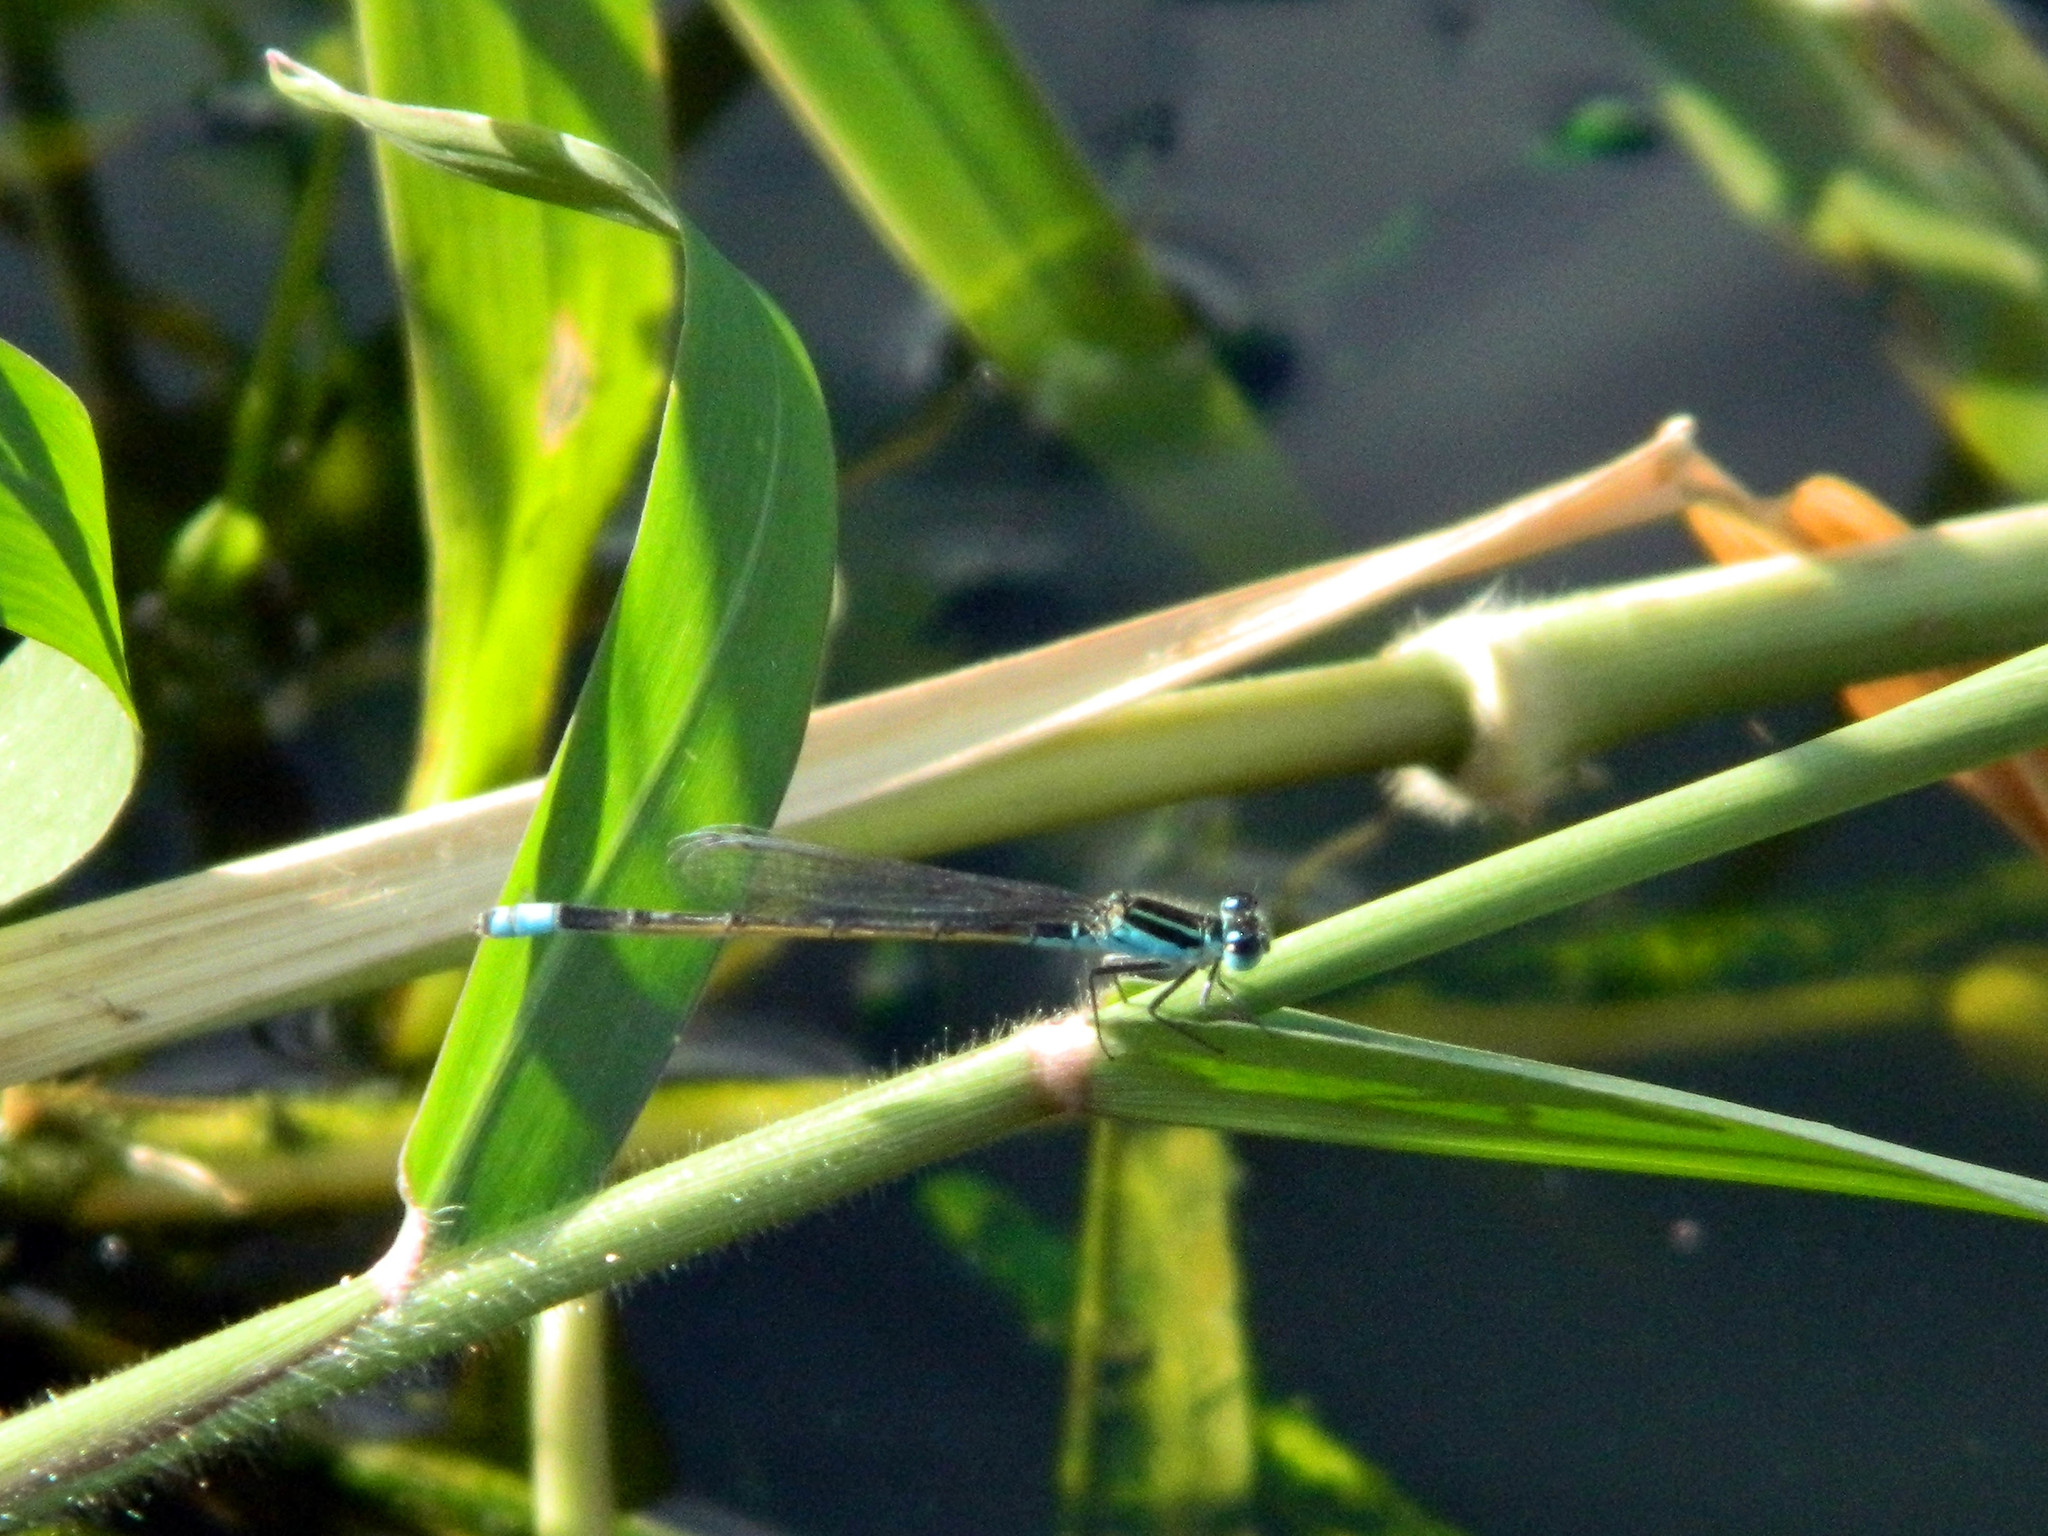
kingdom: Animalia
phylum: Arthropoda
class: Insecta
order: Odonata
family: Coenagrionidae
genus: Ischnura
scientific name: Ischnura ramburii
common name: Rambur's forktail
